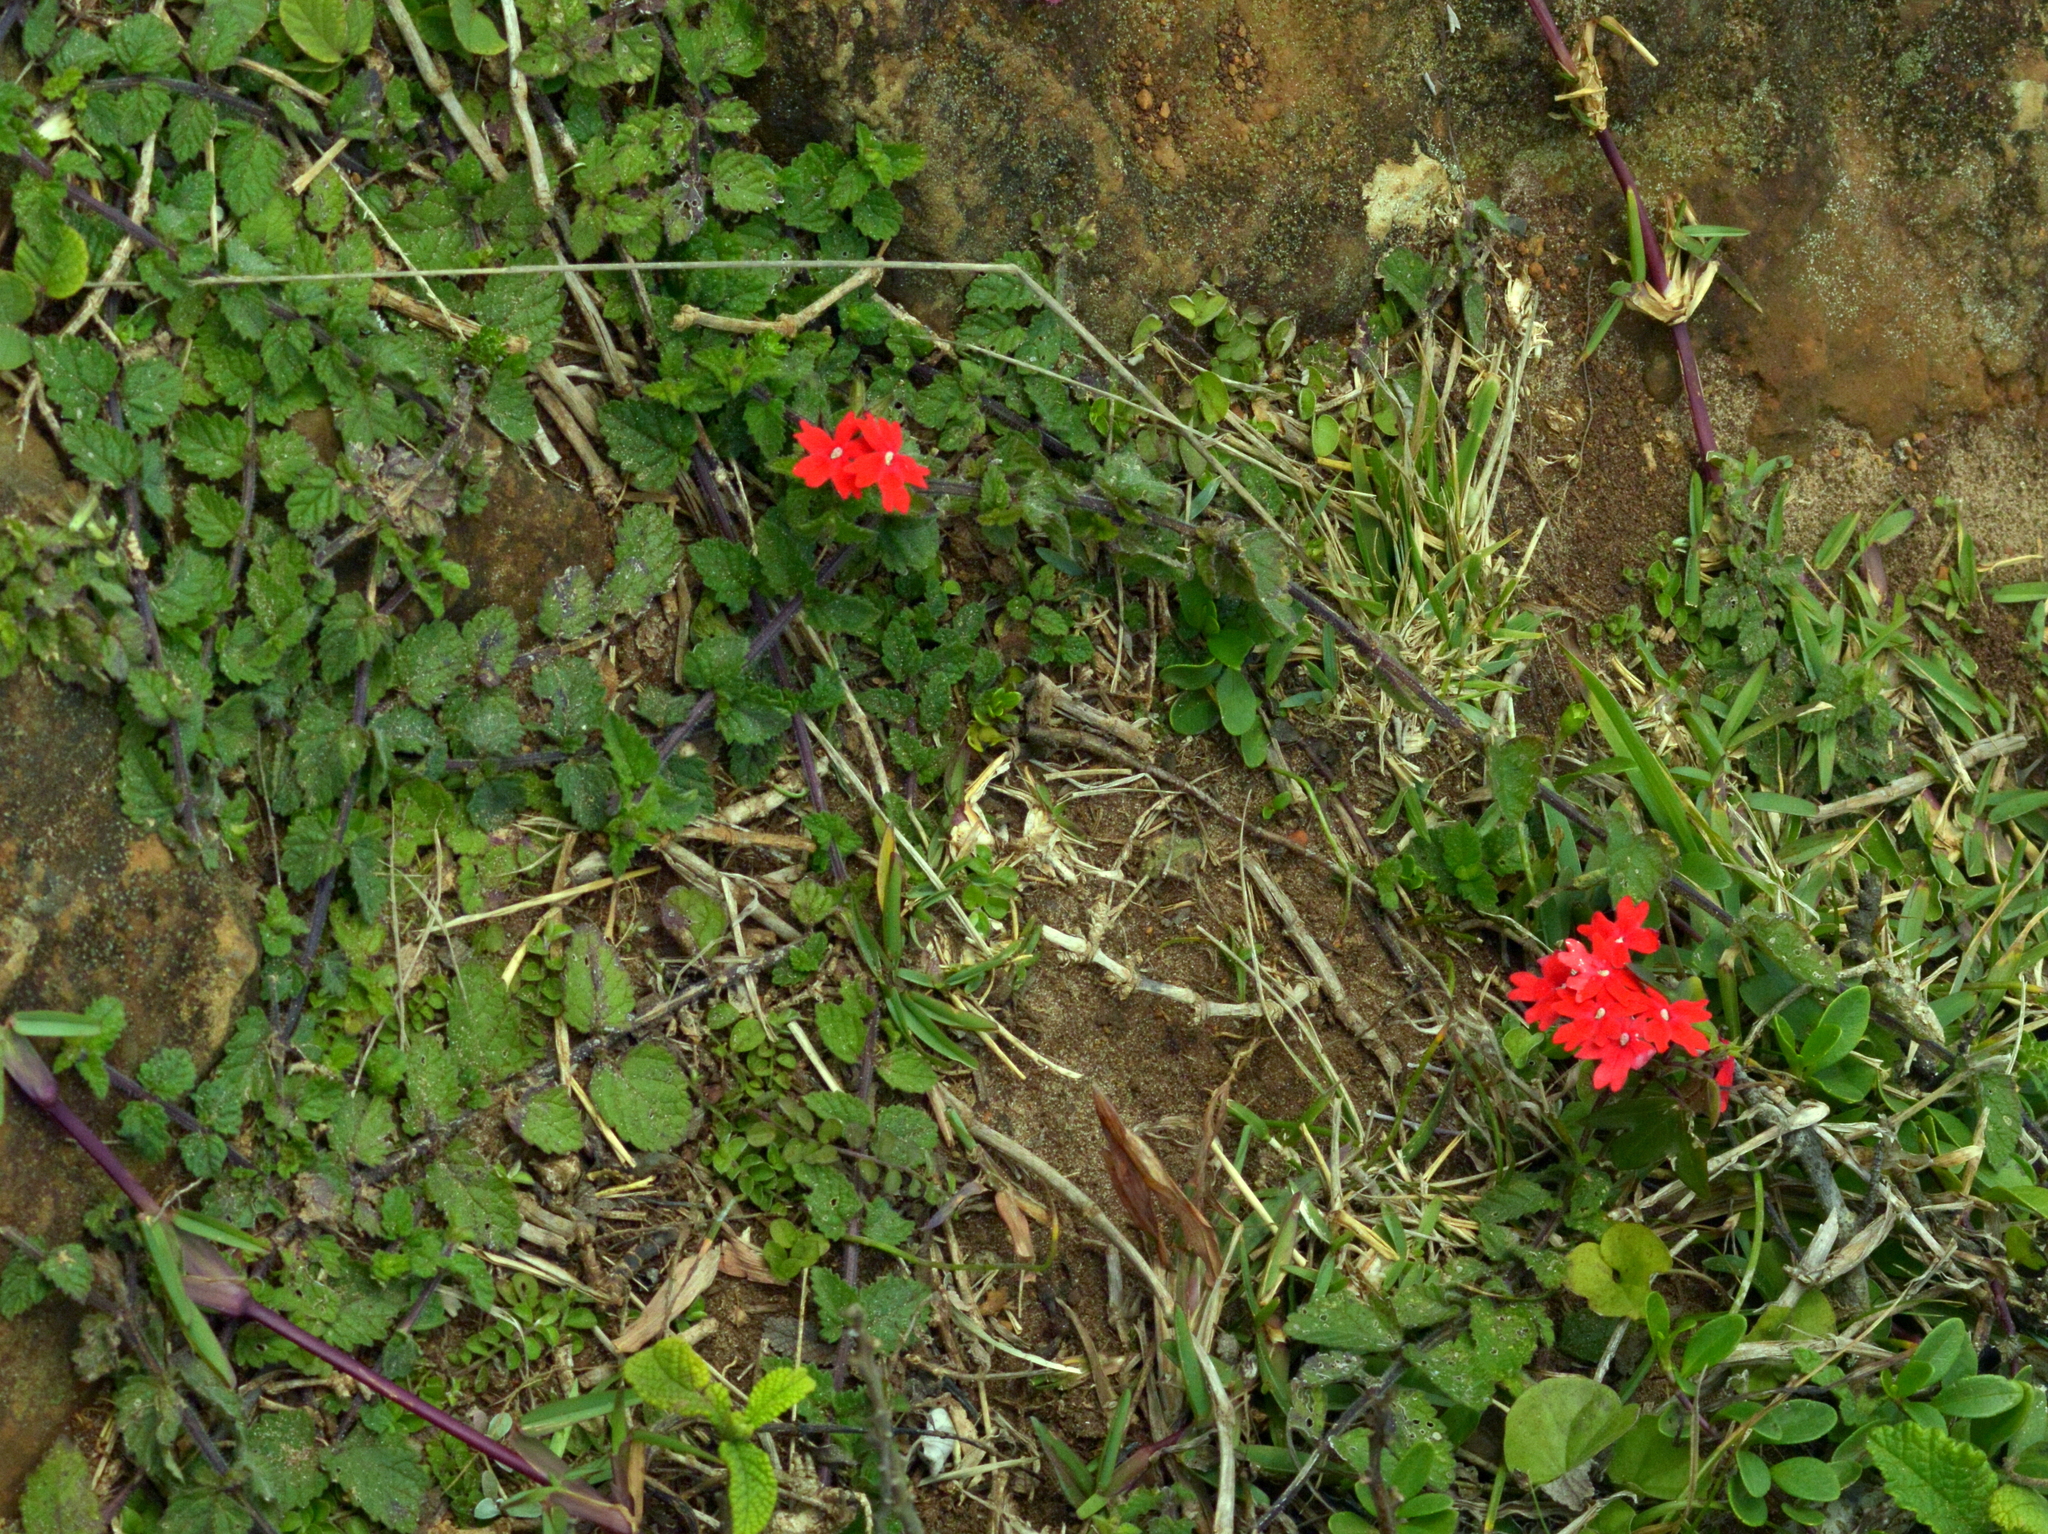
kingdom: Plantae
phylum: Tracheophyta
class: Magnoliopsida
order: Lamiales
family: Verbenaceae
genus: Verbena
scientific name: Verbena peruviana
